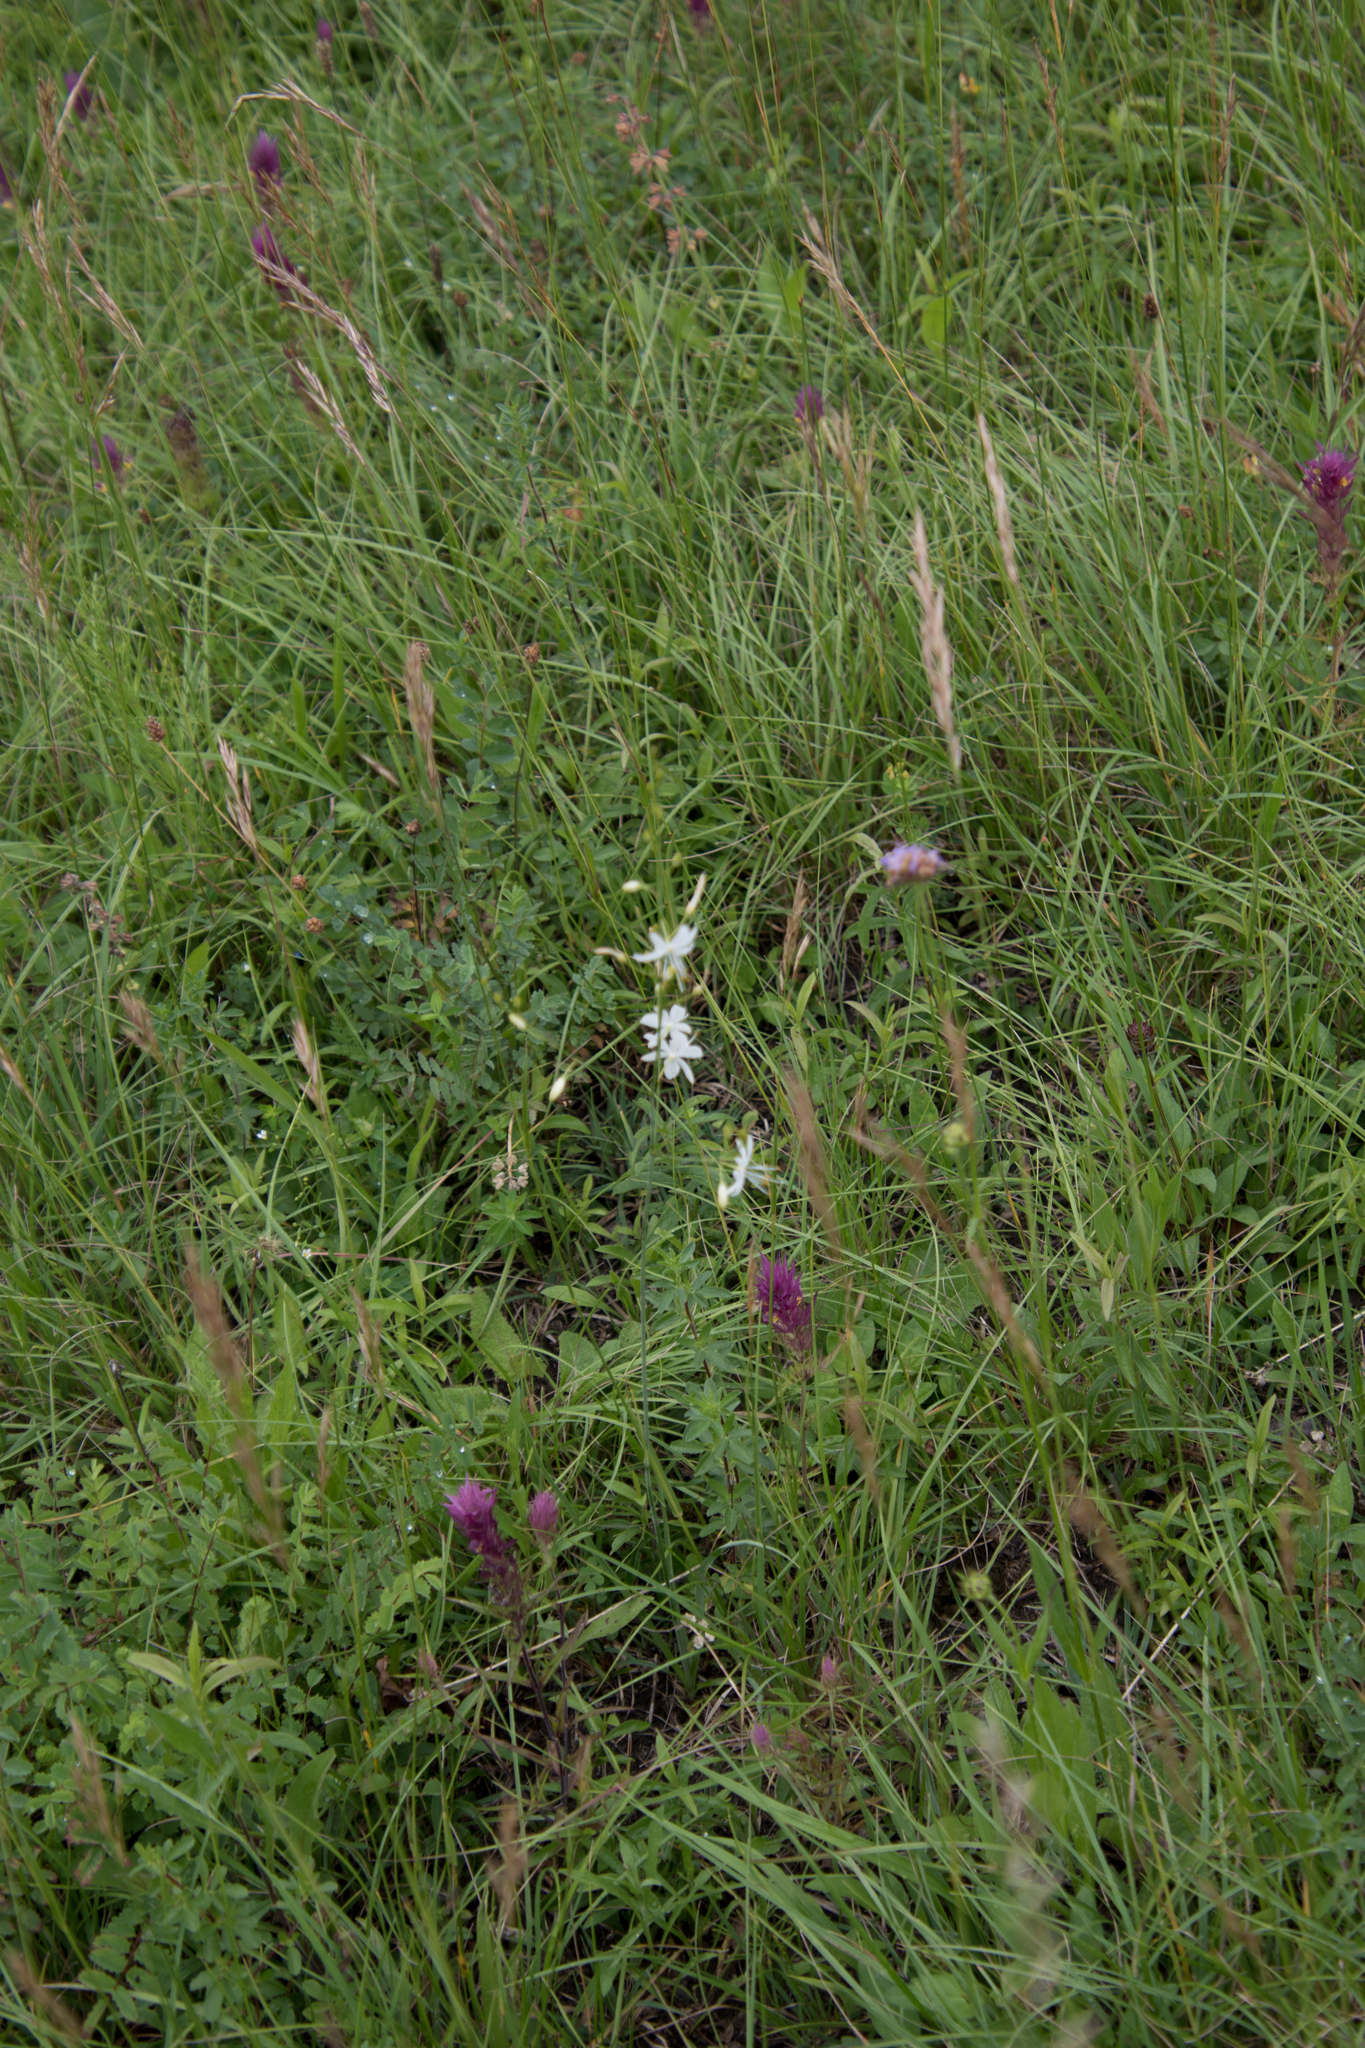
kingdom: Plantae
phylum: Tracheophyta
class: Liliopsida
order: Asparagales
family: Asparagaceae
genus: Anthericum
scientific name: Anthericum ramosum
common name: Branched st. bernard's-lily
